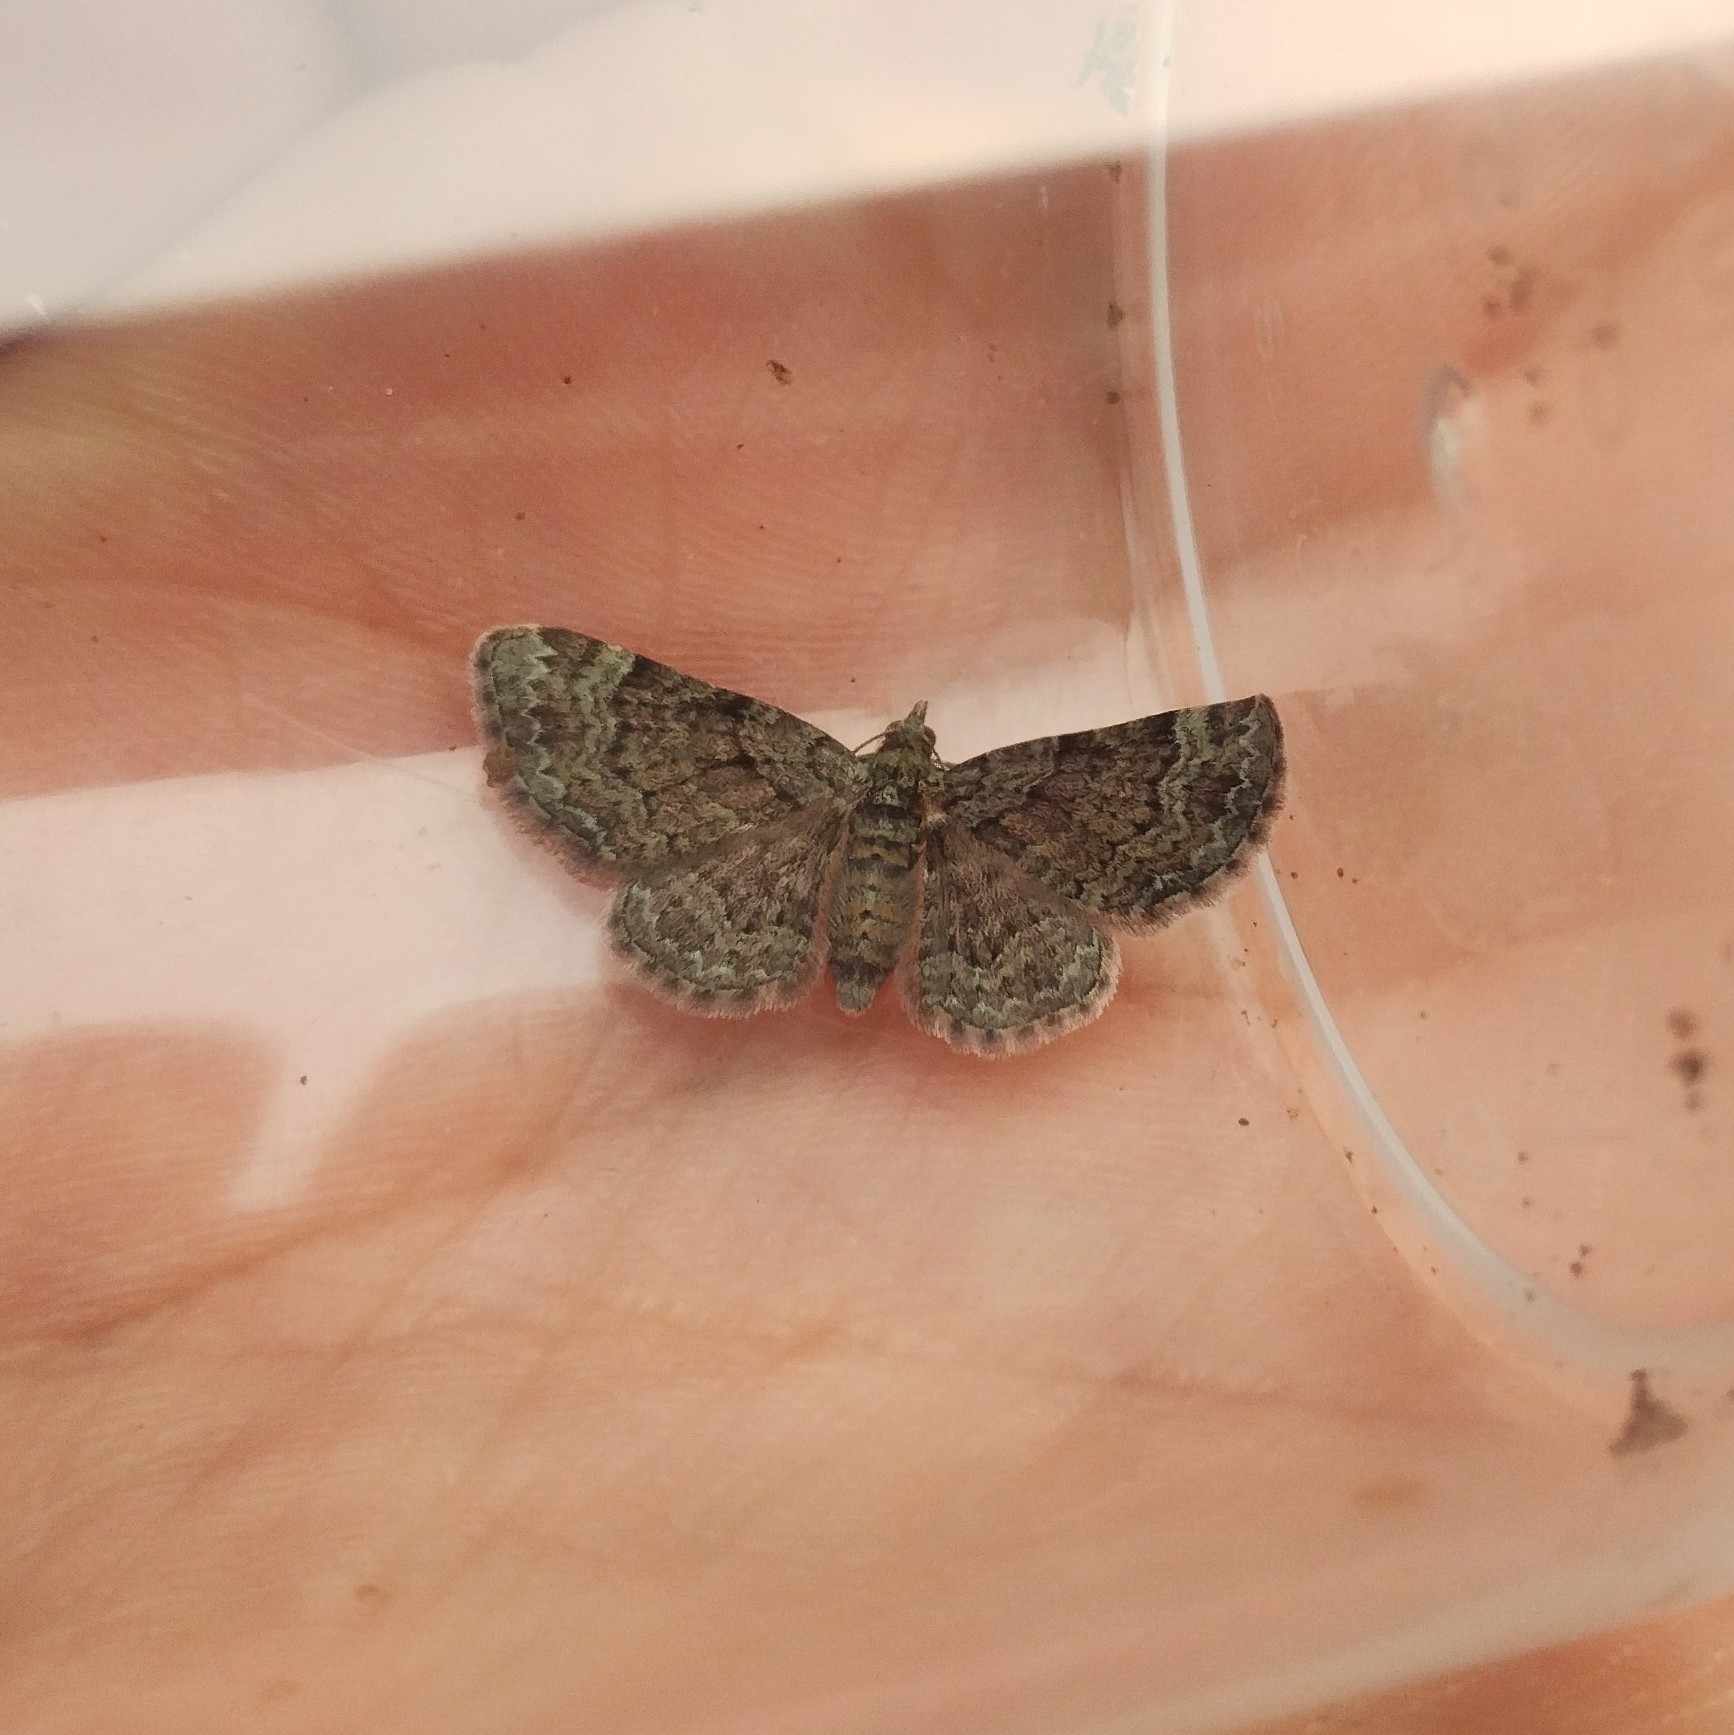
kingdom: Animalia
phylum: Arthropoda
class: Insecta
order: Lepidoptera
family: Geometridae
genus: Pasiphila
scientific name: Pasiphila rectangulata
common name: Green pug
